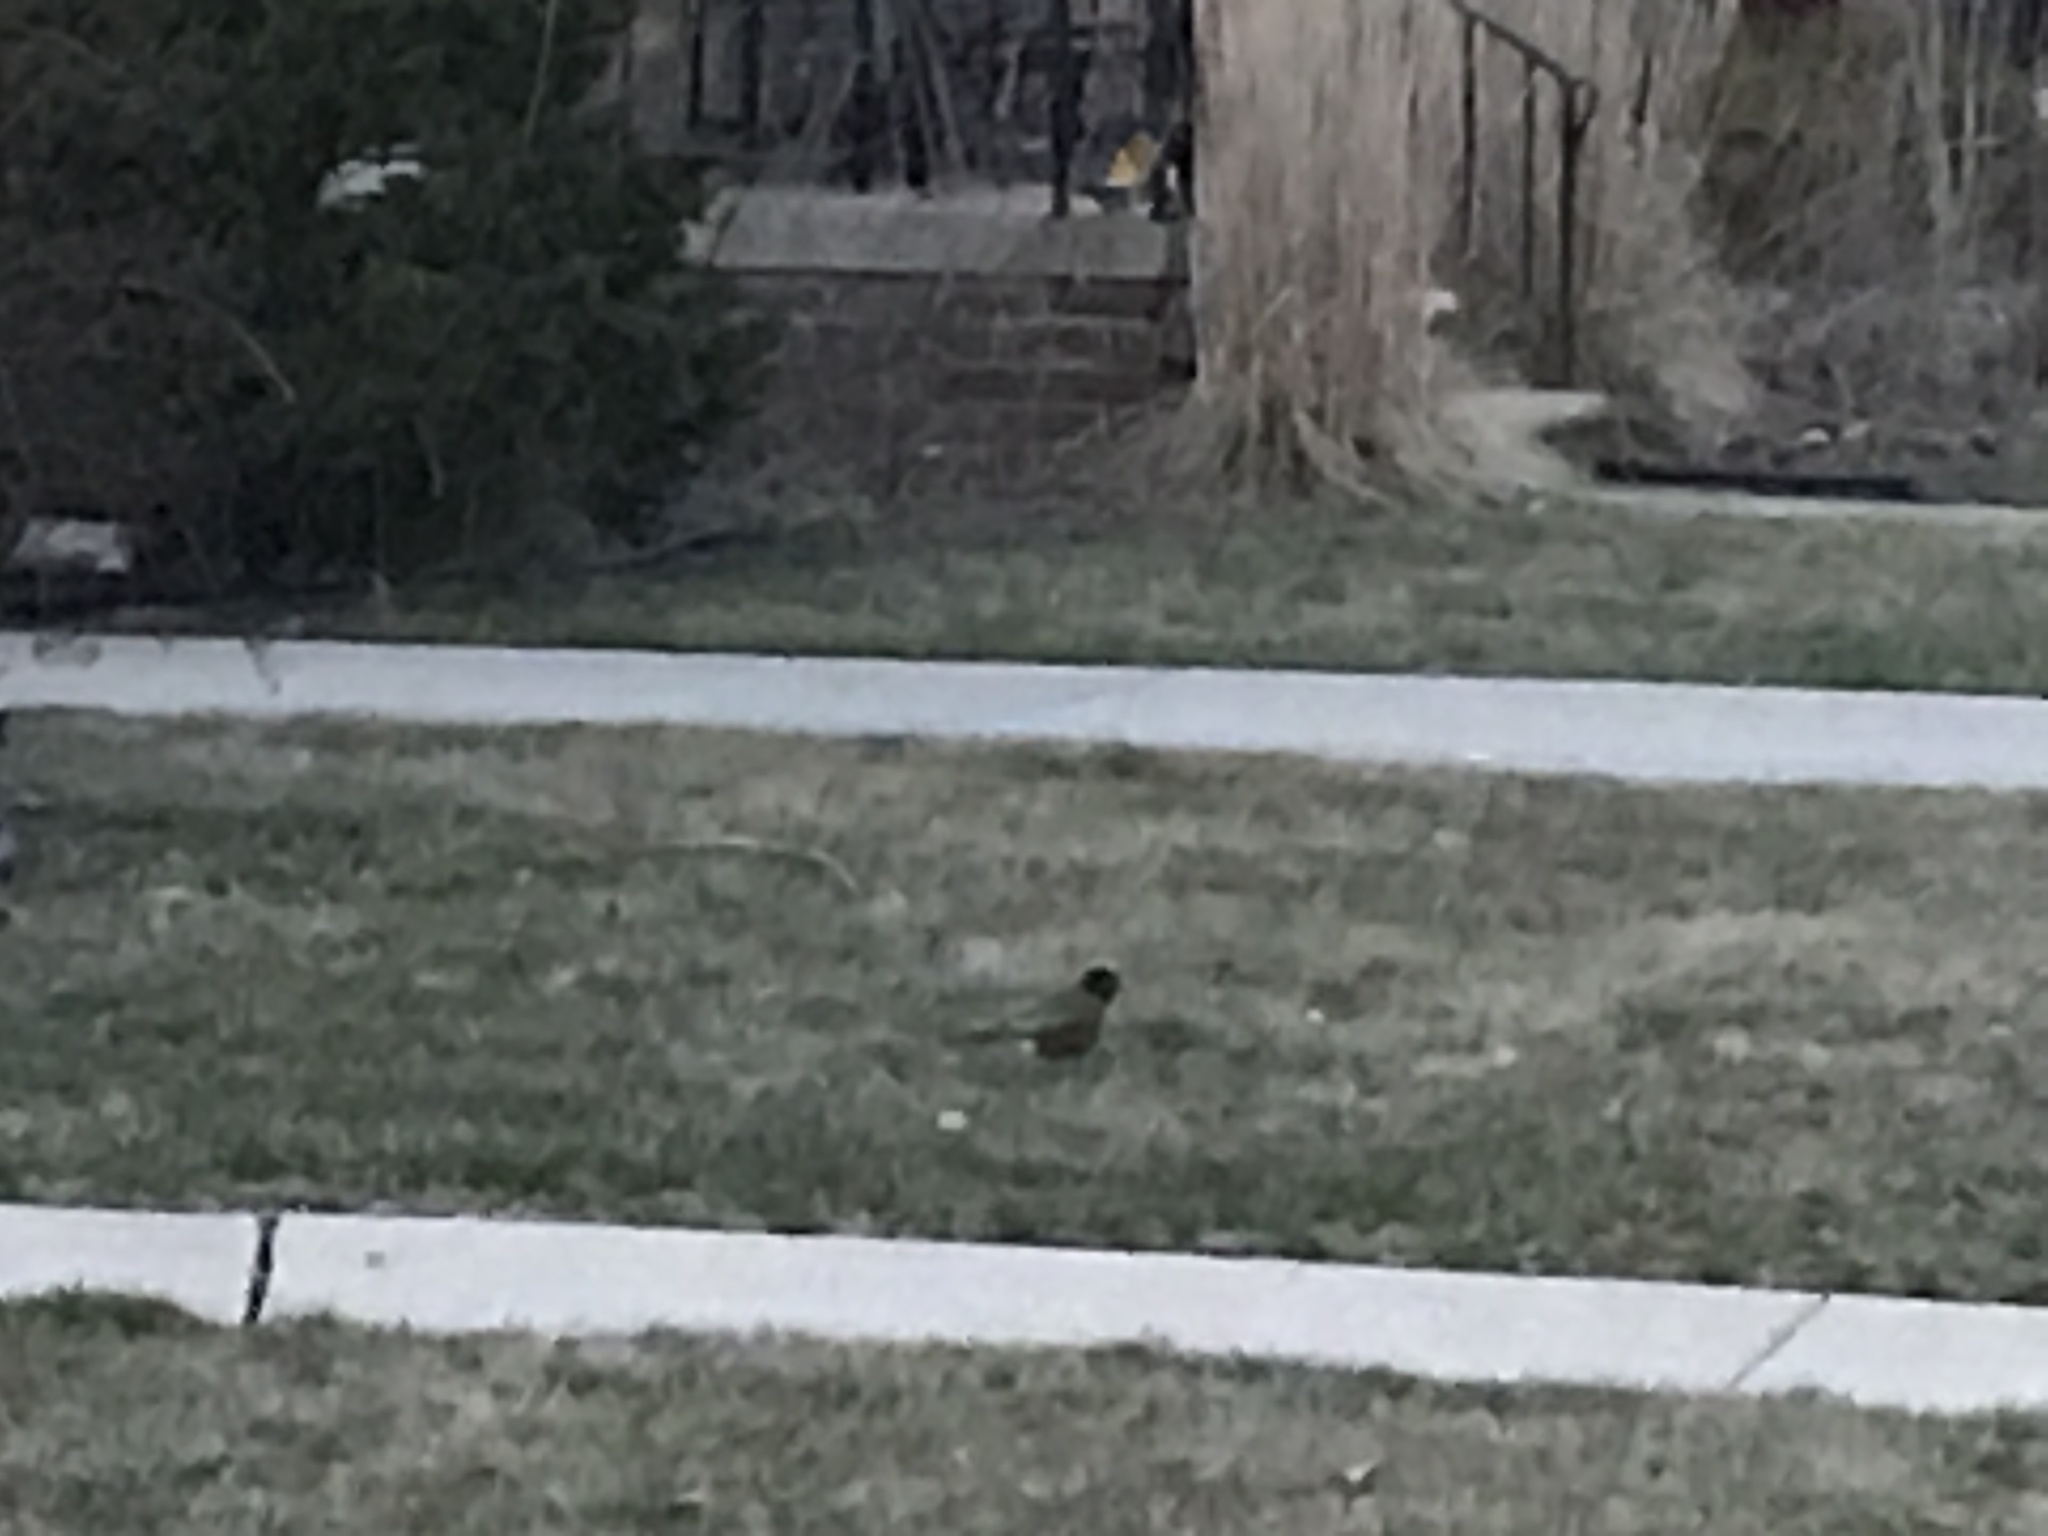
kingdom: Animalia
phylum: Chordata
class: Aves
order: Passeriformes
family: Turdidae
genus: Turdus
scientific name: Turdus migratorius
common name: American robin
